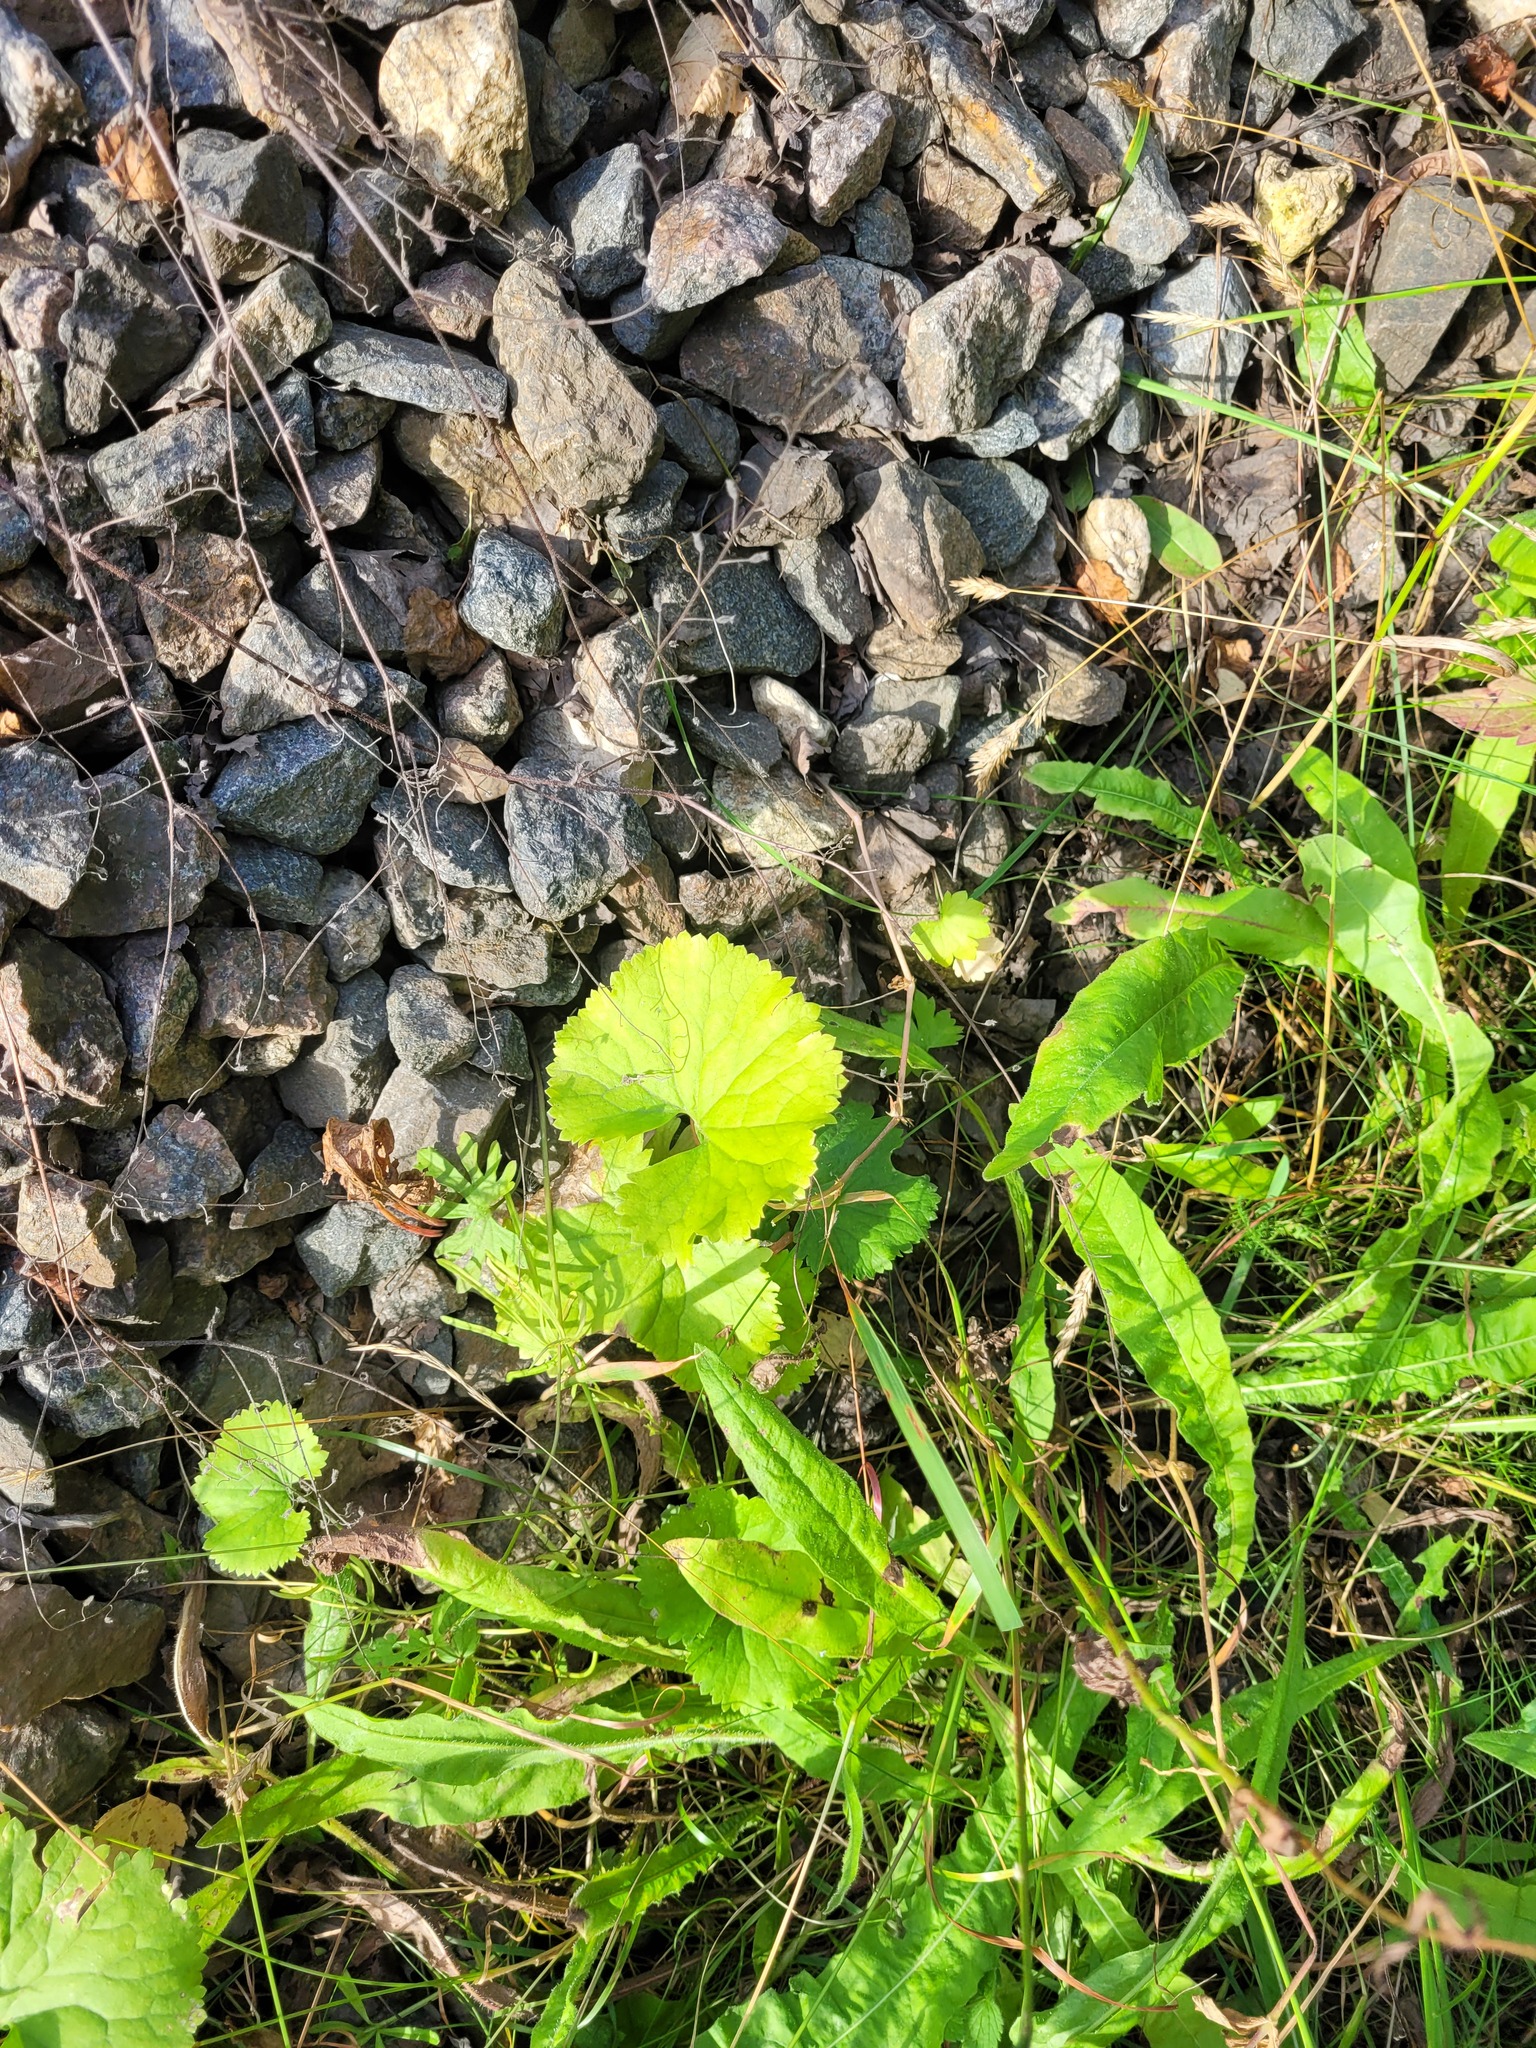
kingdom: Plantae
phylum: Tracheophyta
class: Magnoliopsida
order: Ranunculales
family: Ranunculaceae
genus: Ranunculus
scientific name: Ranunculus cassubicus
